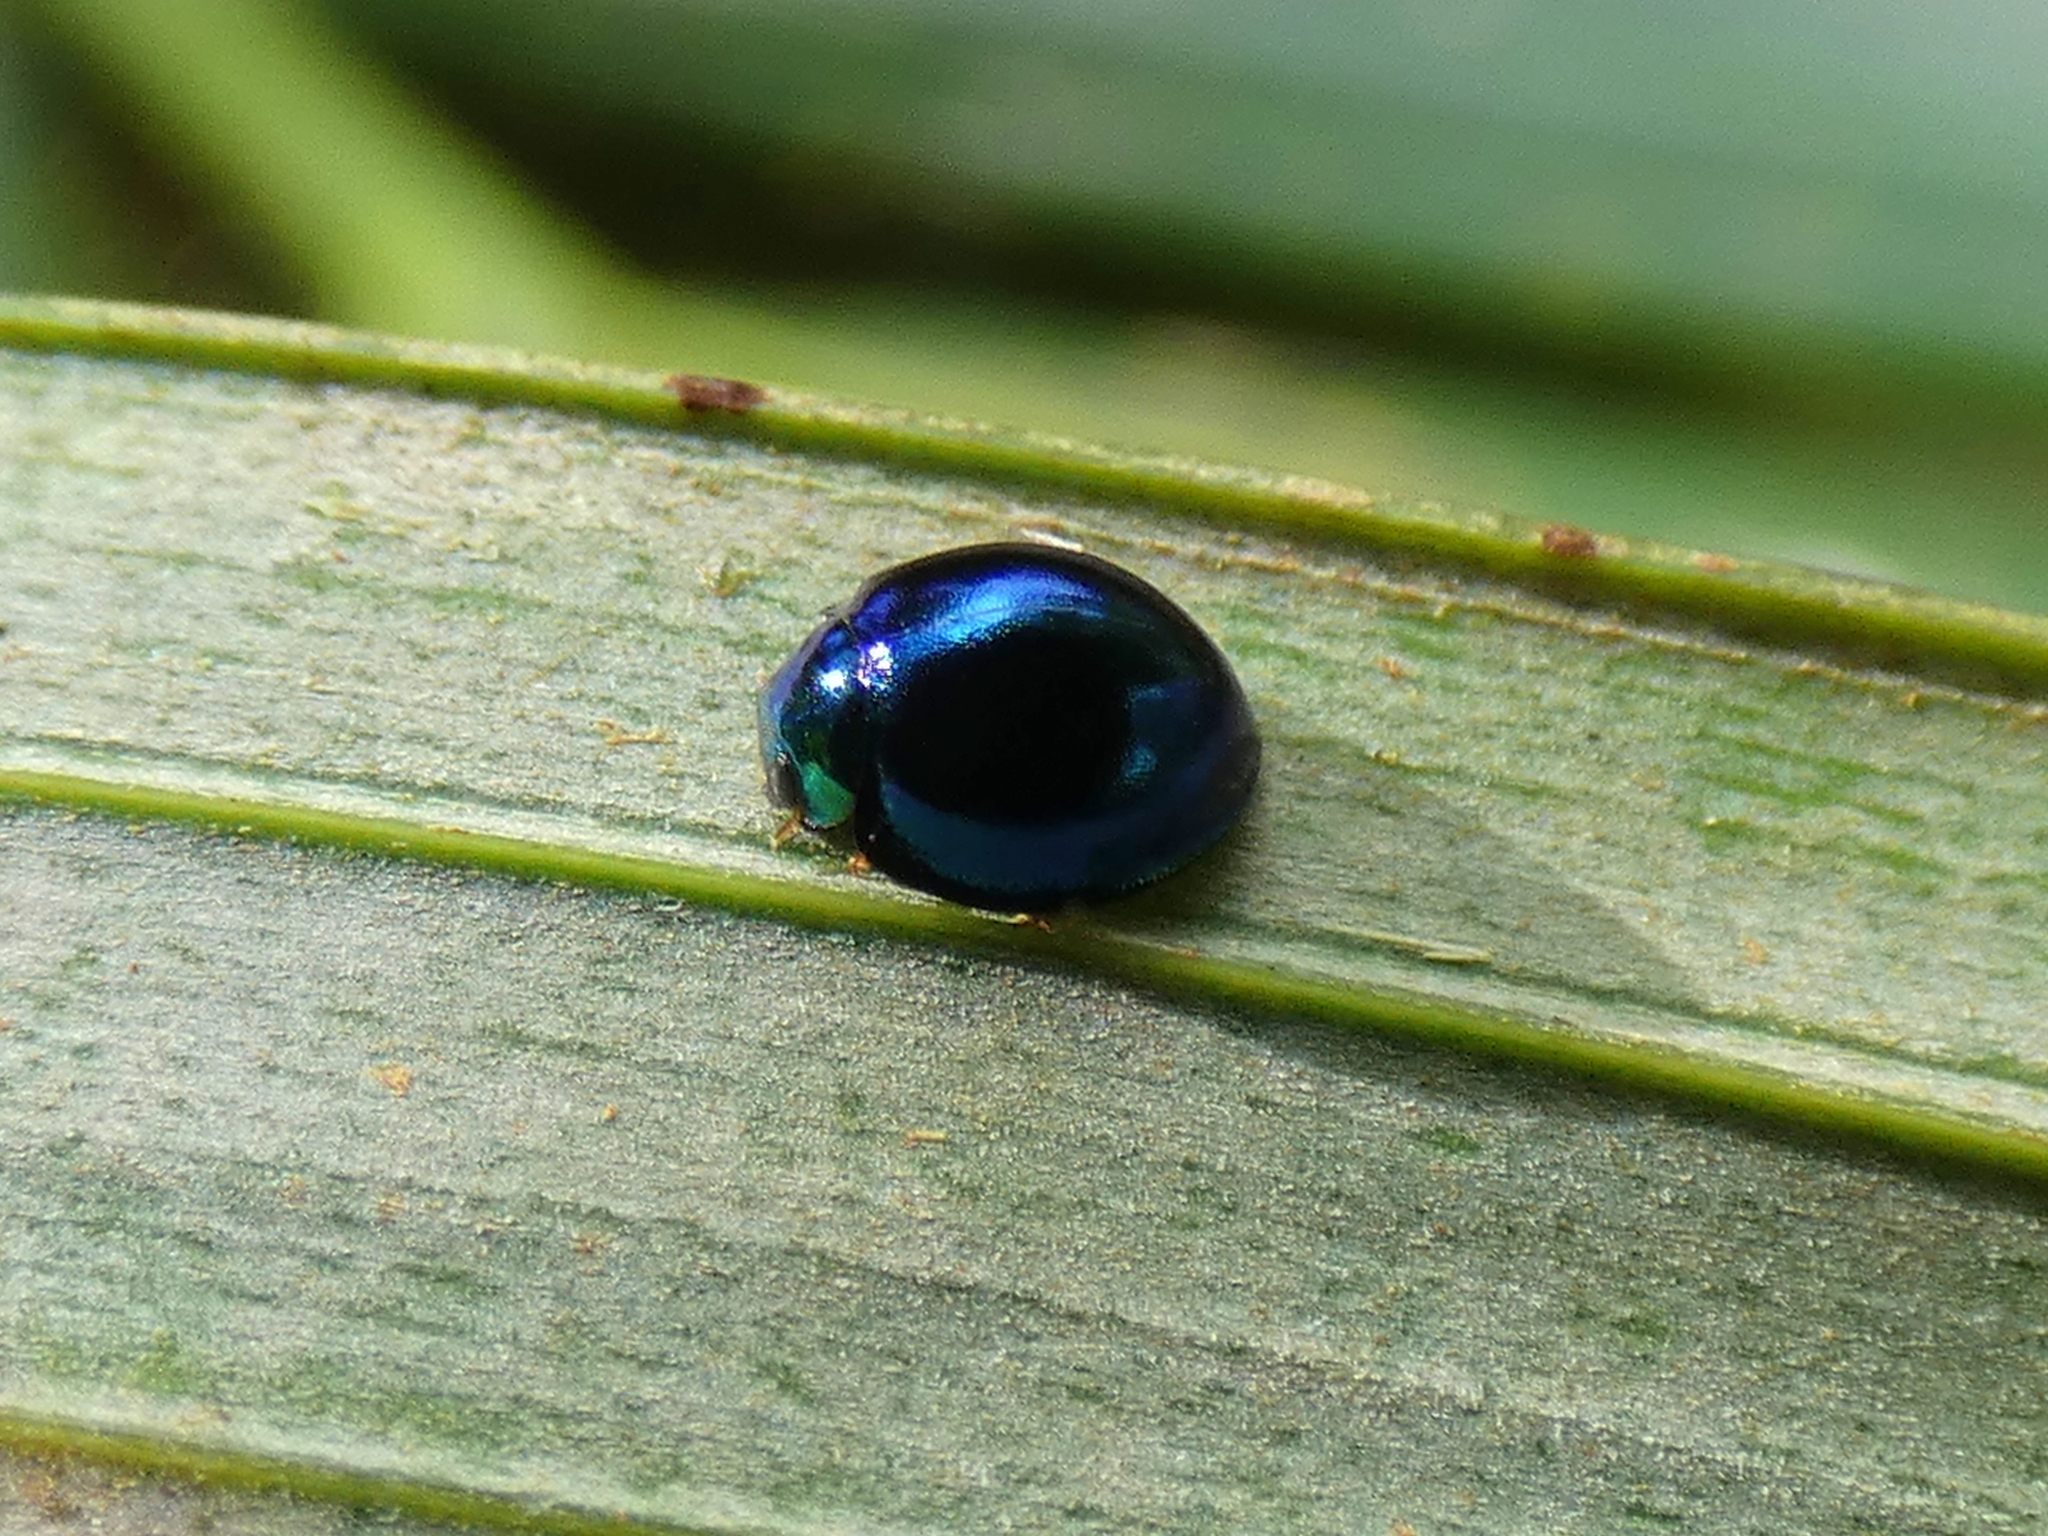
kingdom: Animalia
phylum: Arthropoda
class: Insecta
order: Coleoptera
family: Coccinellidae
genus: Halmus
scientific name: Halmus chalybeus
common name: Steel blue ladybird beetle
